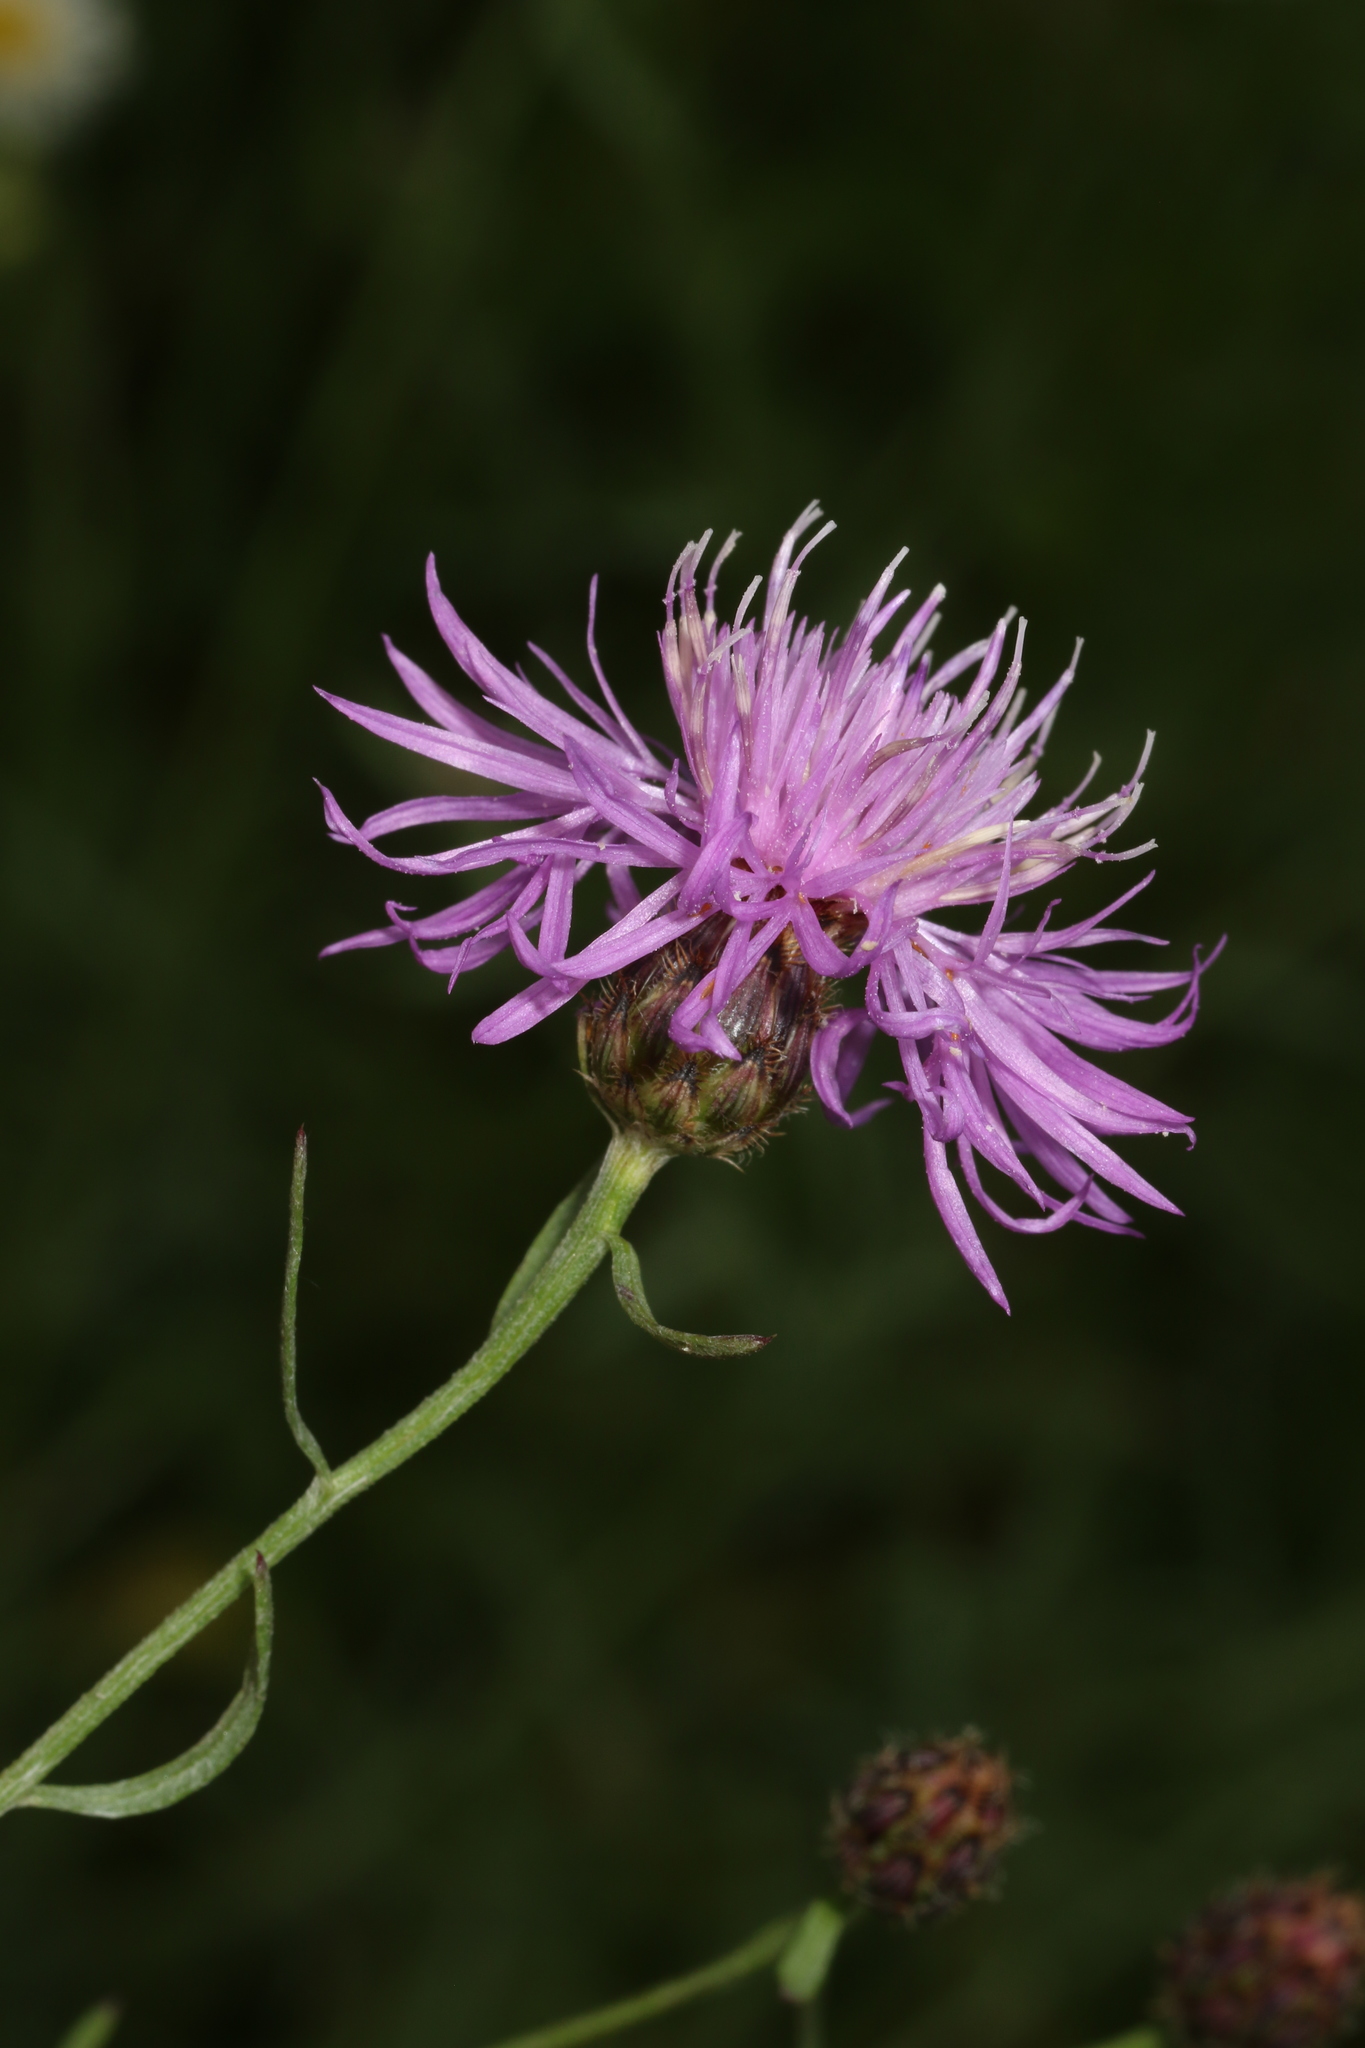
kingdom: Plantae
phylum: Tracheophyta
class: Magnoliopsida
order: Asterales
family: Asteraceae
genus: Centaurea
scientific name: Centaurea stoebe
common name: Spotted knapweed
